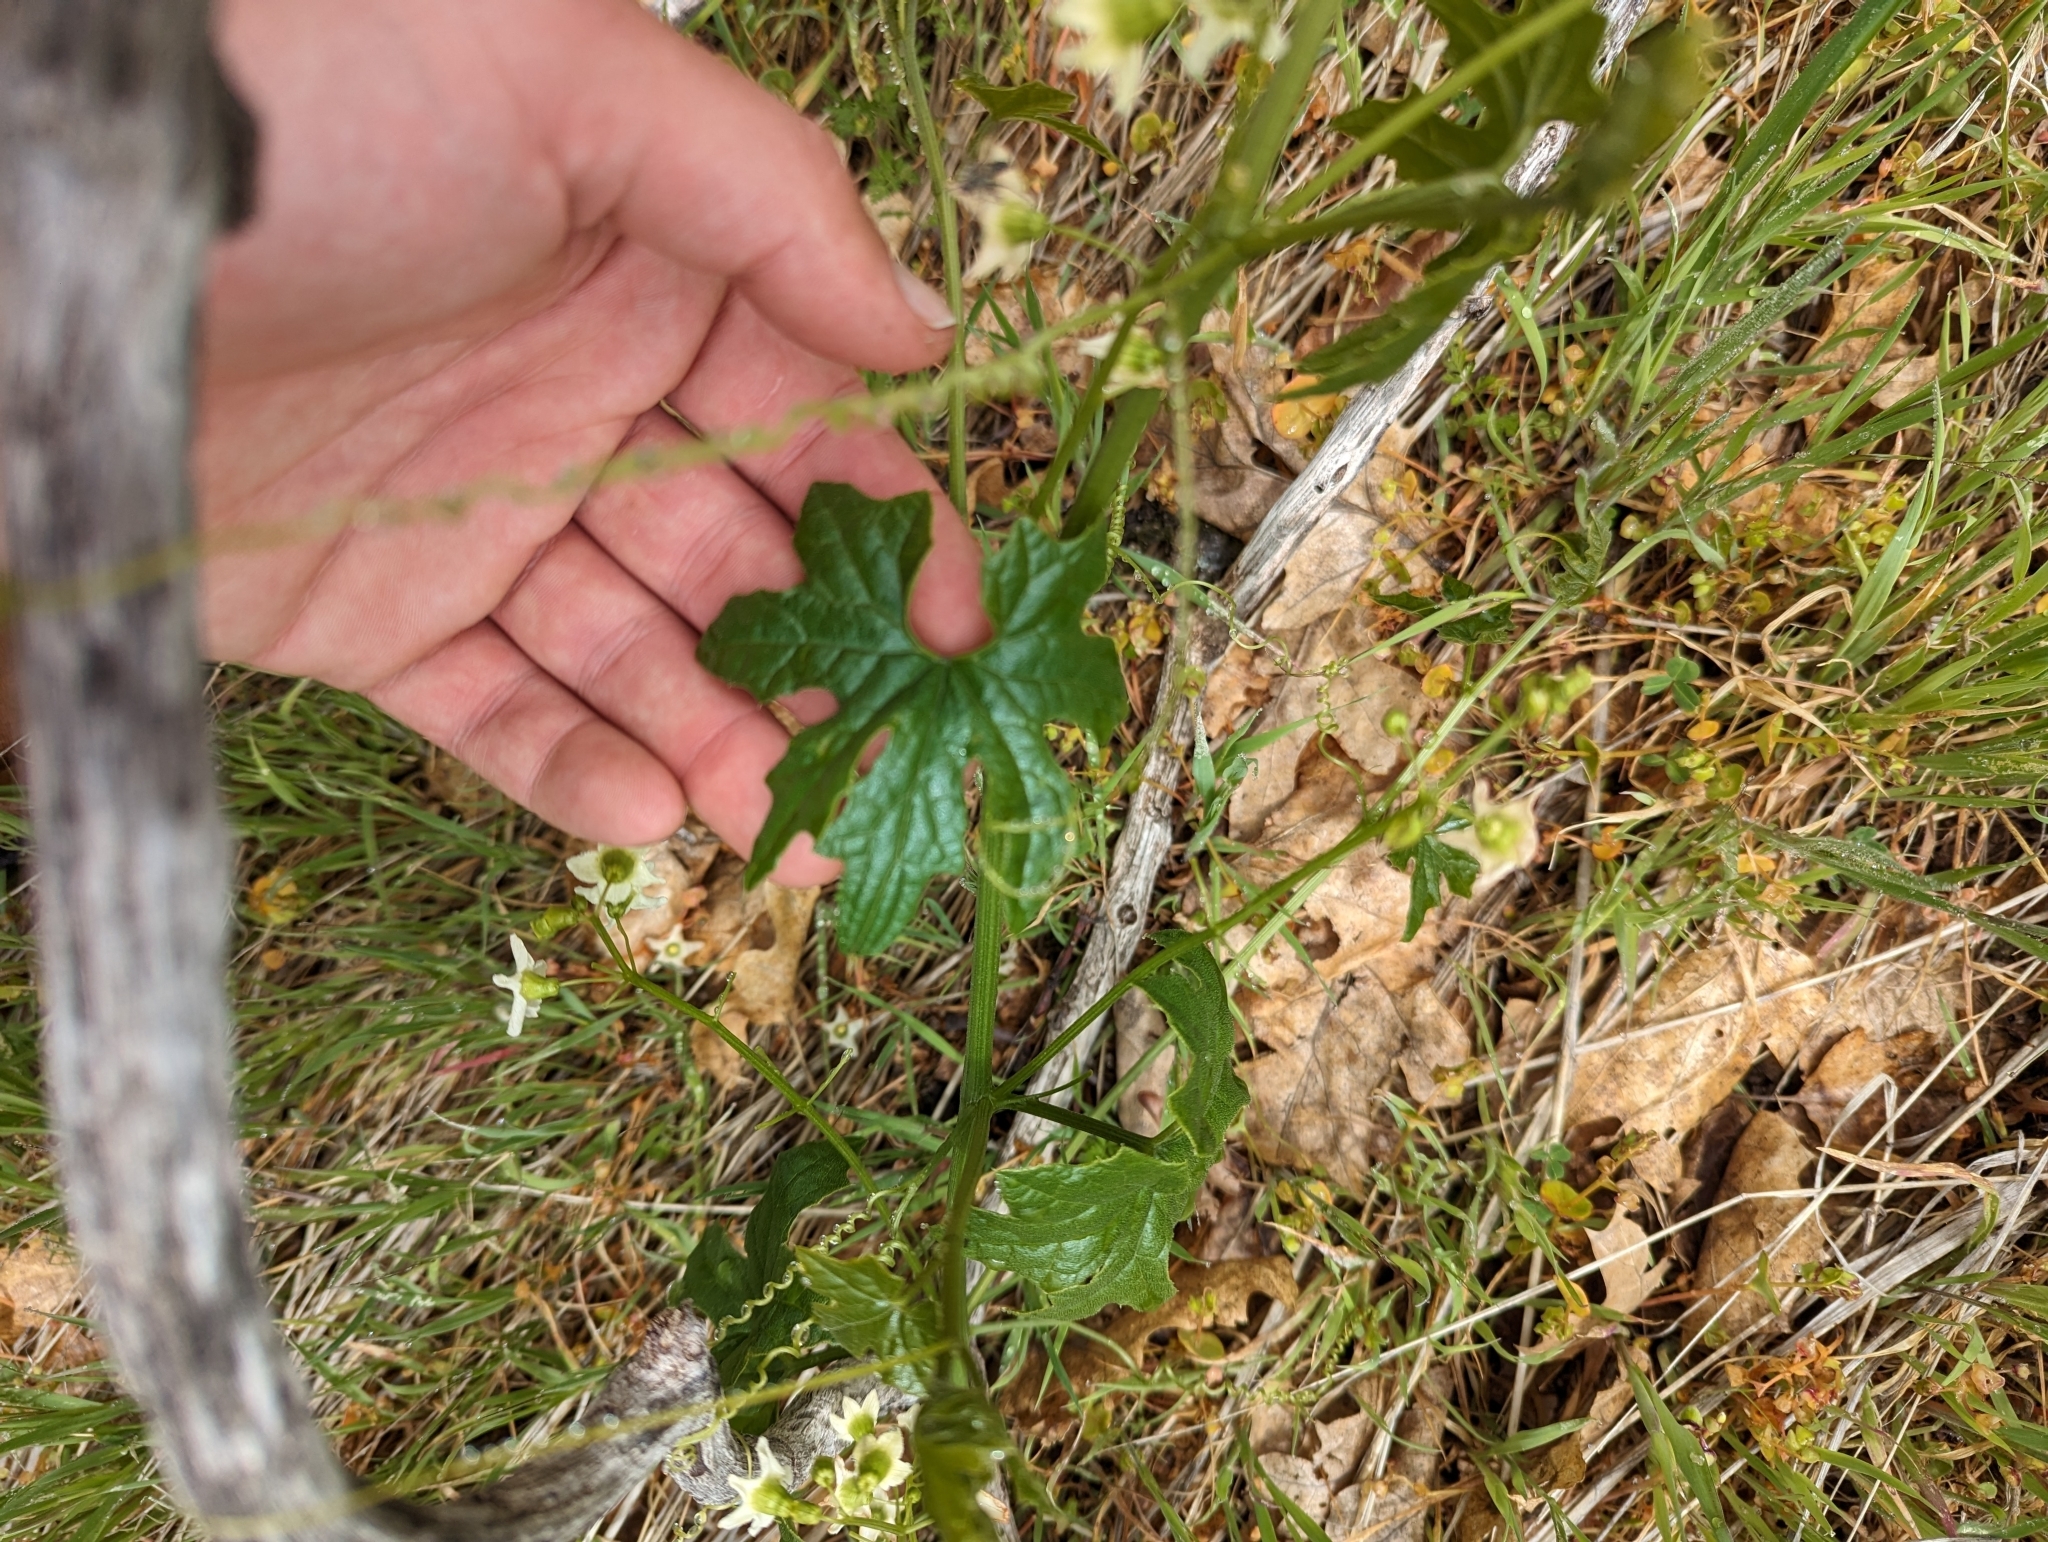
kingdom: Plantae
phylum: Tracheophyta
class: Magnoliopsida
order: Cucurbitales
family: Cucurbitaceae
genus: Marah
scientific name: Marah horrida
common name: Sierra manroot
